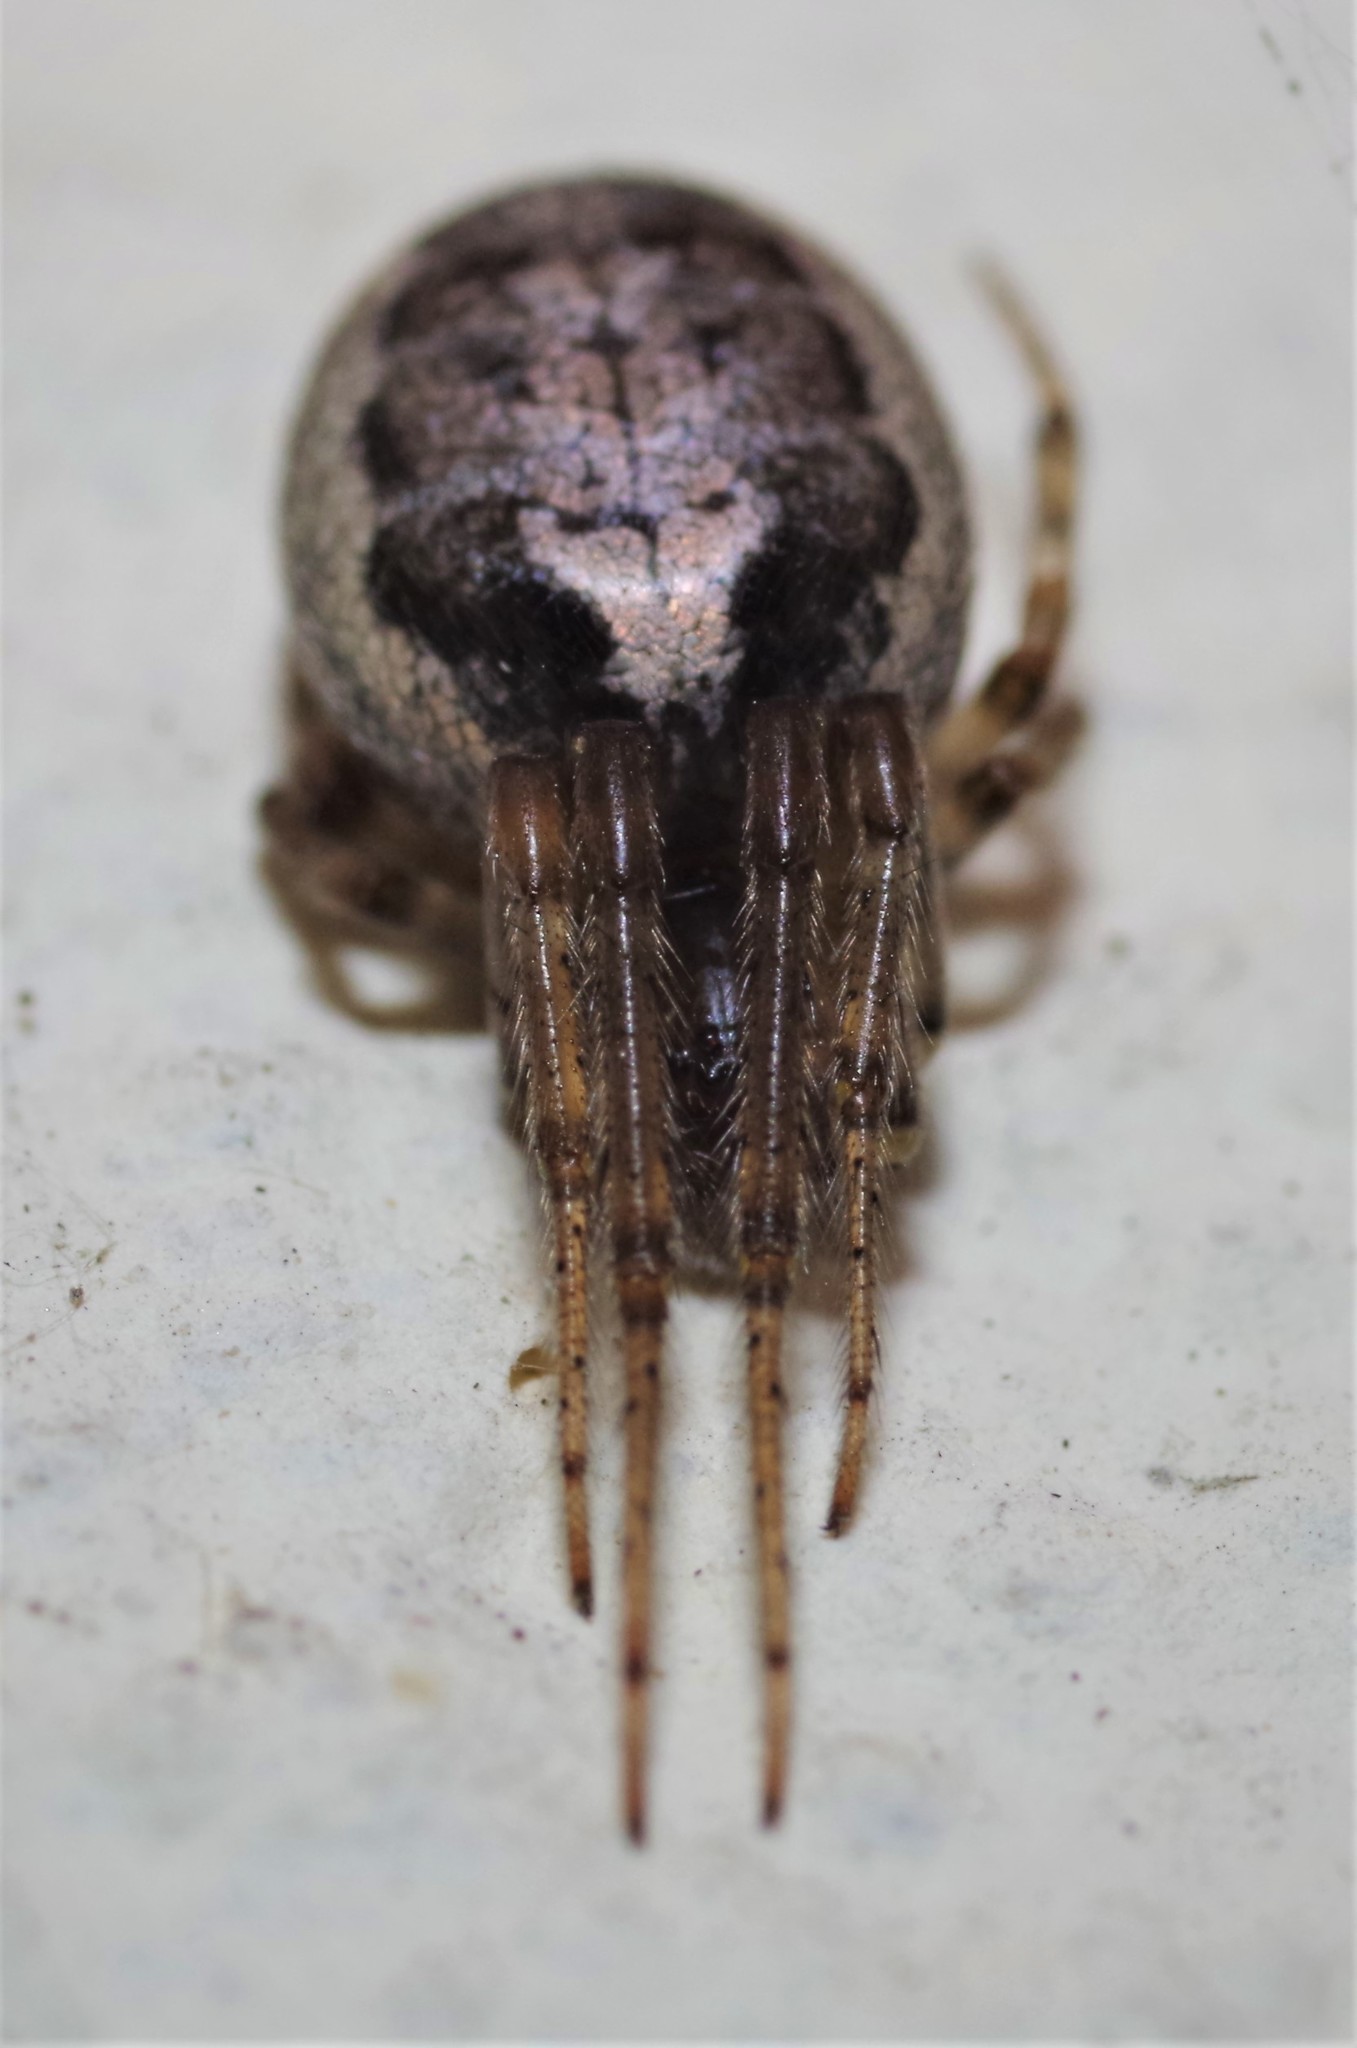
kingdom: Animalia
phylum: Arthropoda
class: Arachnida
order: Araneae
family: Araneidae
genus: Zygiella
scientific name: Zygiella x-notata
